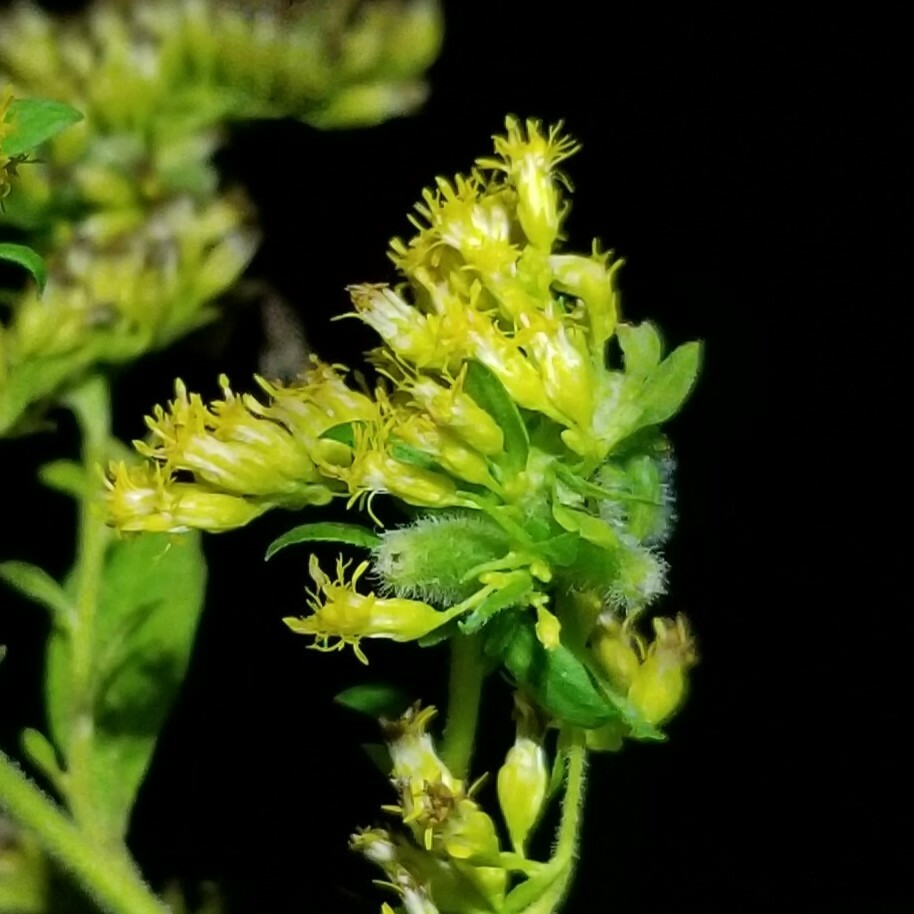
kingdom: Animalia
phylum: Arthropoda
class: Insecta
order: Diptera
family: Cecidomyiidae
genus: Rhopalomyia
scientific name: Rhopalomyia anthophila
